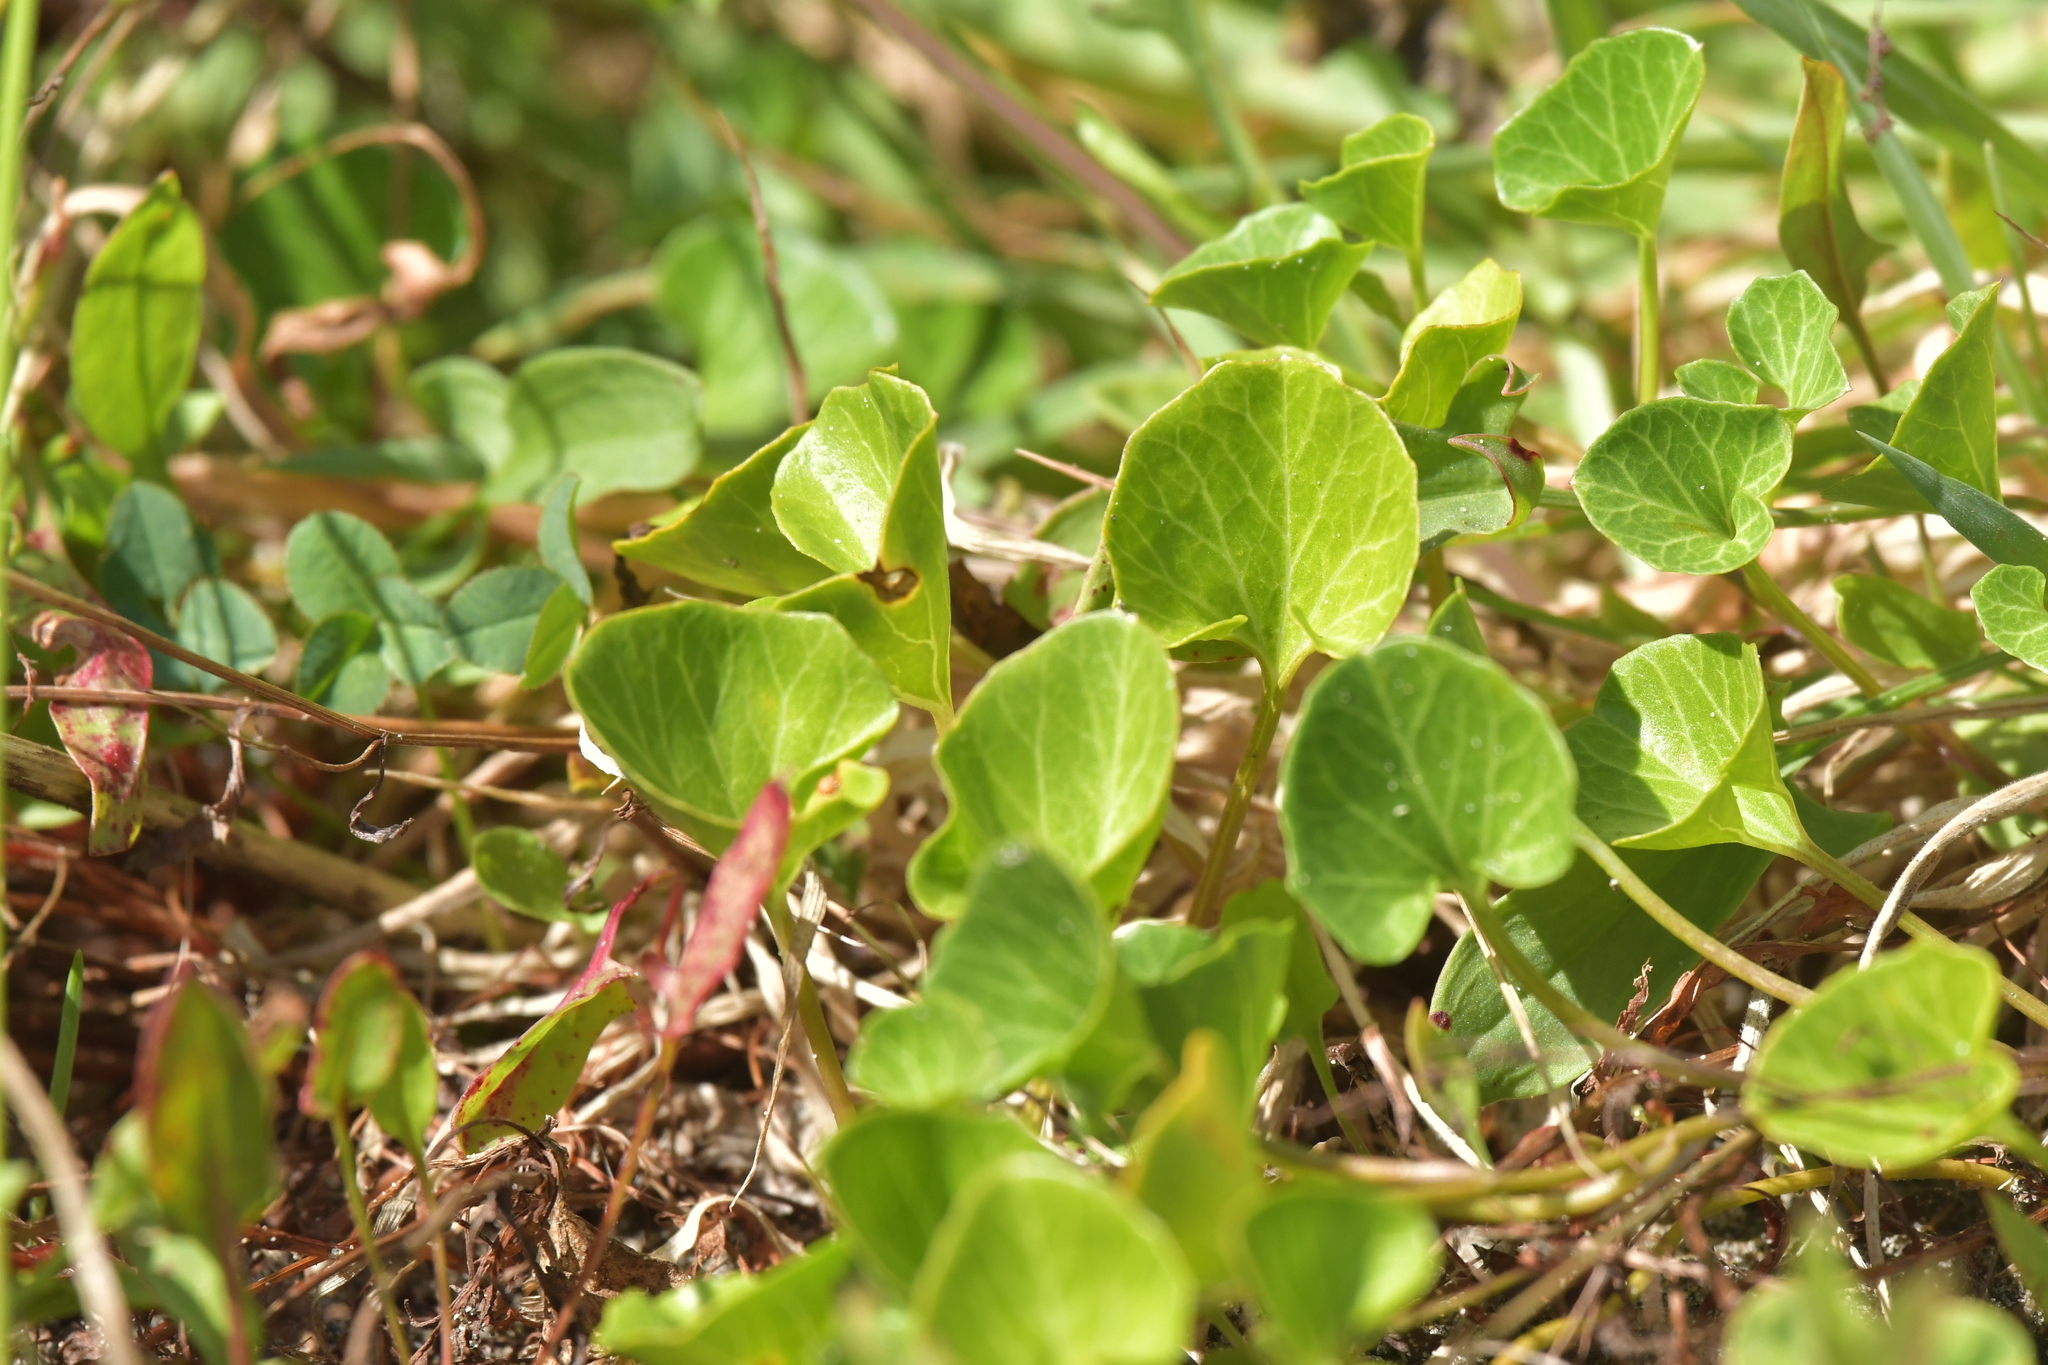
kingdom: Plantae
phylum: Tracheophyta
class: Magnoliopsida
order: Solanales
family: Convolvulaceae
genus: Calystegia
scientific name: Calystegia soldanella
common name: Sea bindweed
